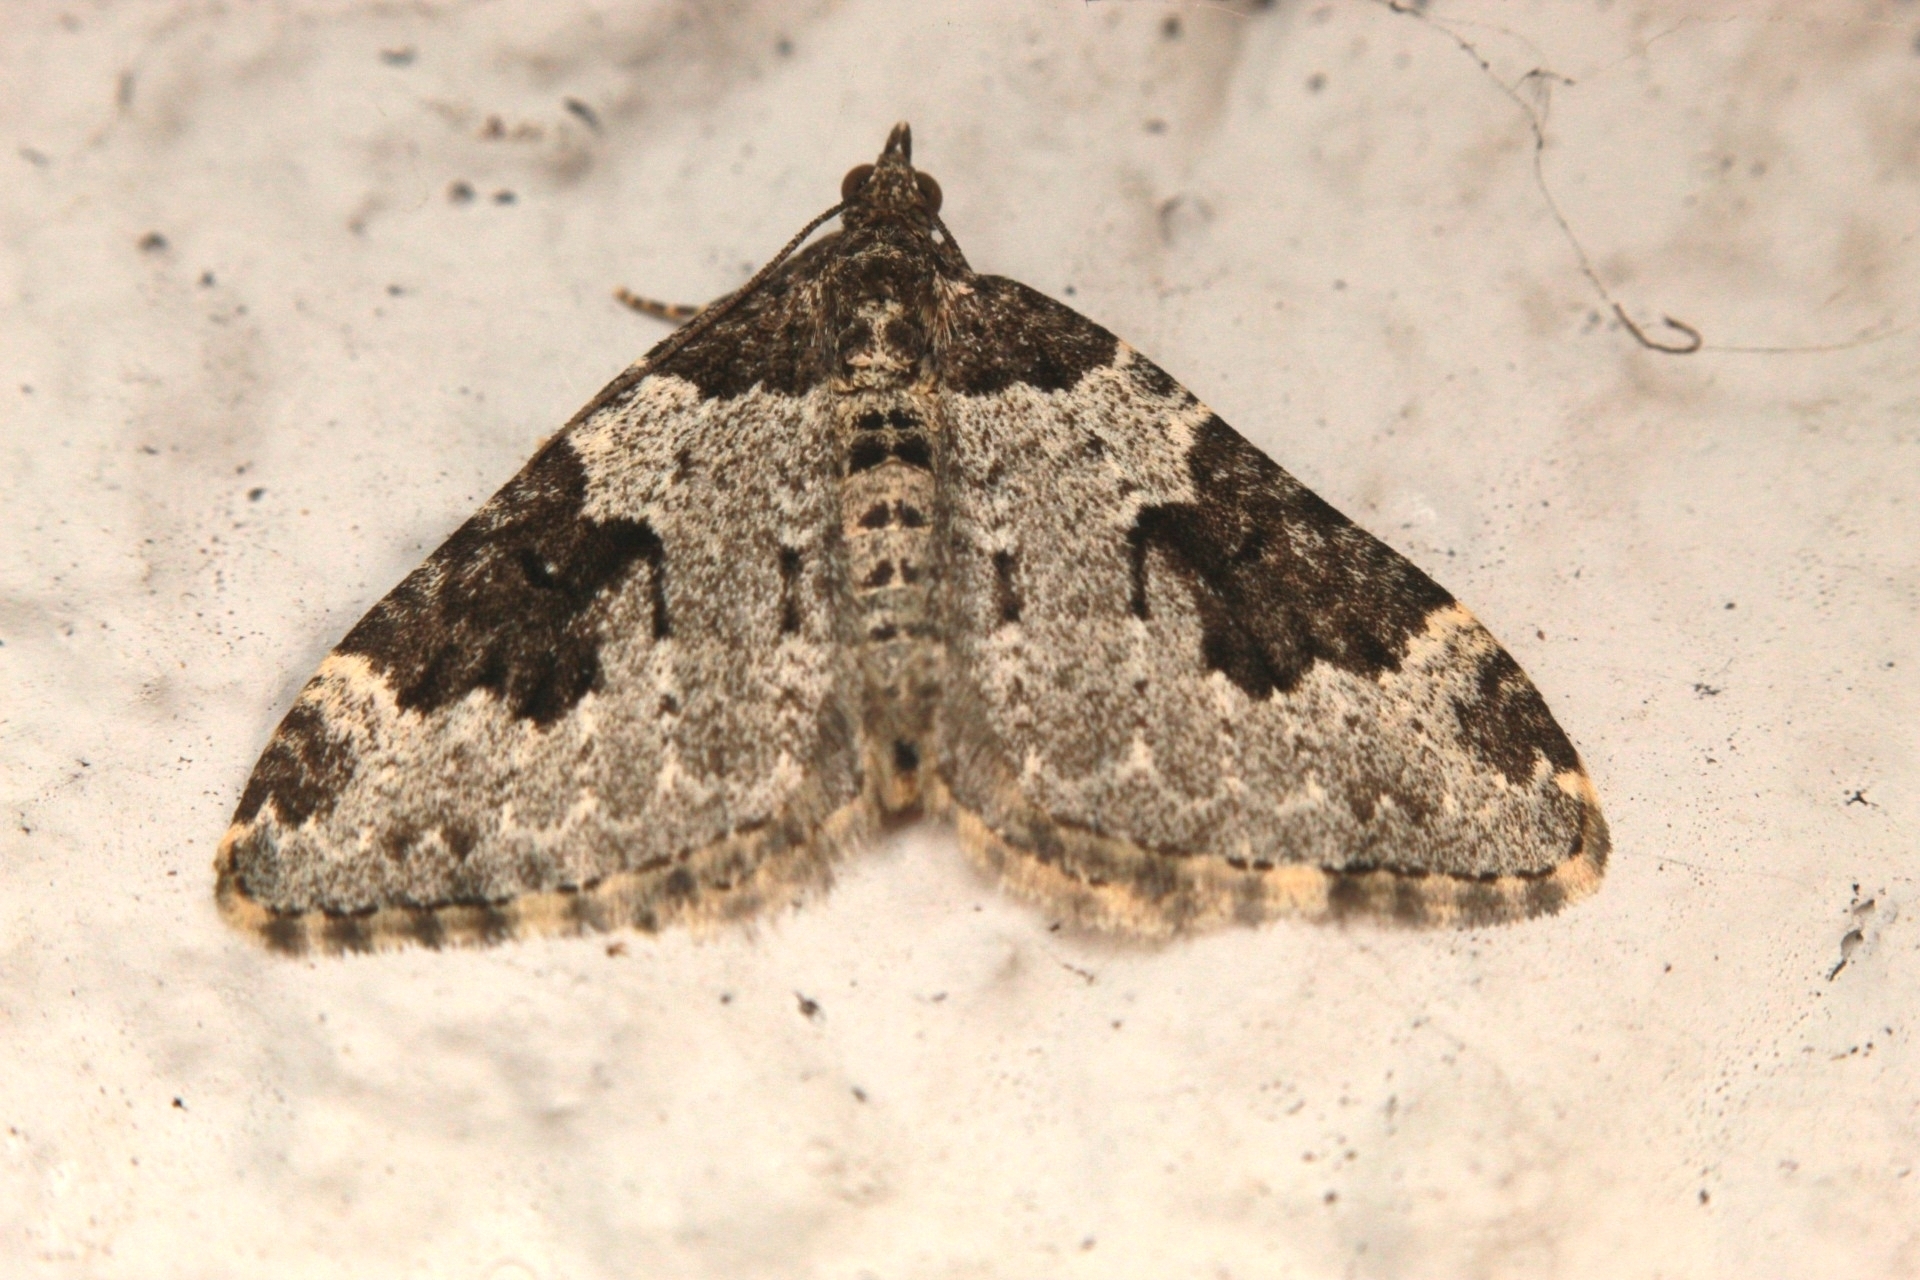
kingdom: Animalia
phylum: Arthropoda
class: Insecta
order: Lepidoptera
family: Geometridae
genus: Xanthorhoe
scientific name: Xanthorhoe fluctuata
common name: Garden carpet
